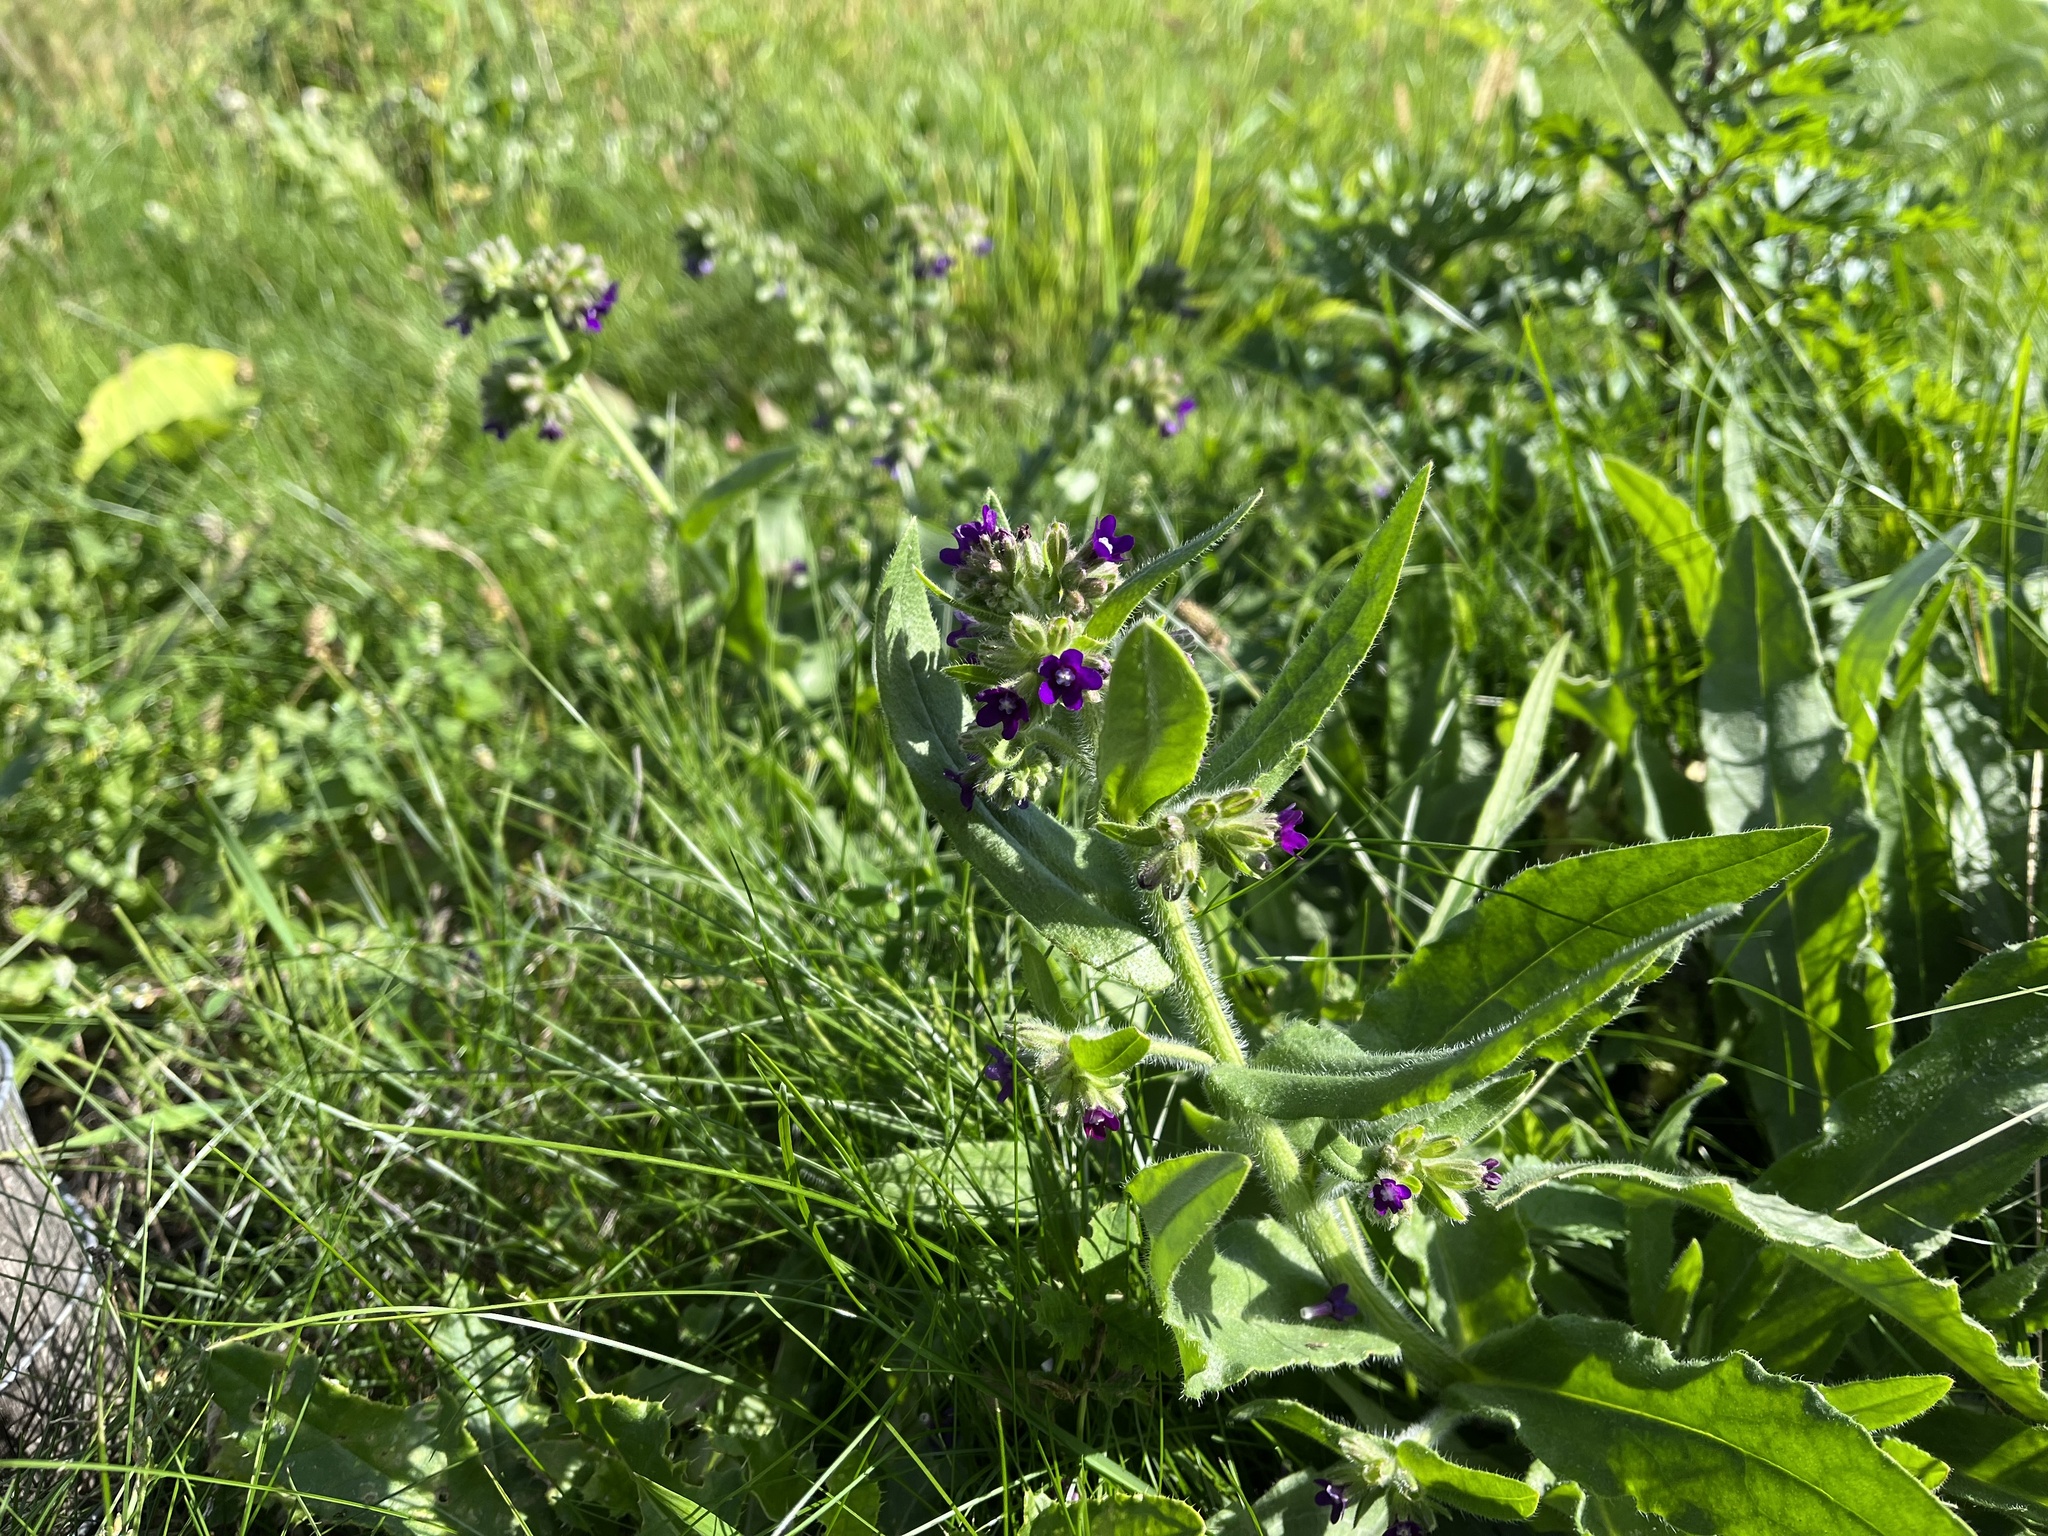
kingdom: Plantae
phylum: Tracheophyta
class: Magnoliopsida
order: Boraginales
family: Boraginaceae
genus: Anchusa
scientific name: Anchusa officinalis
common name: Alkanet
